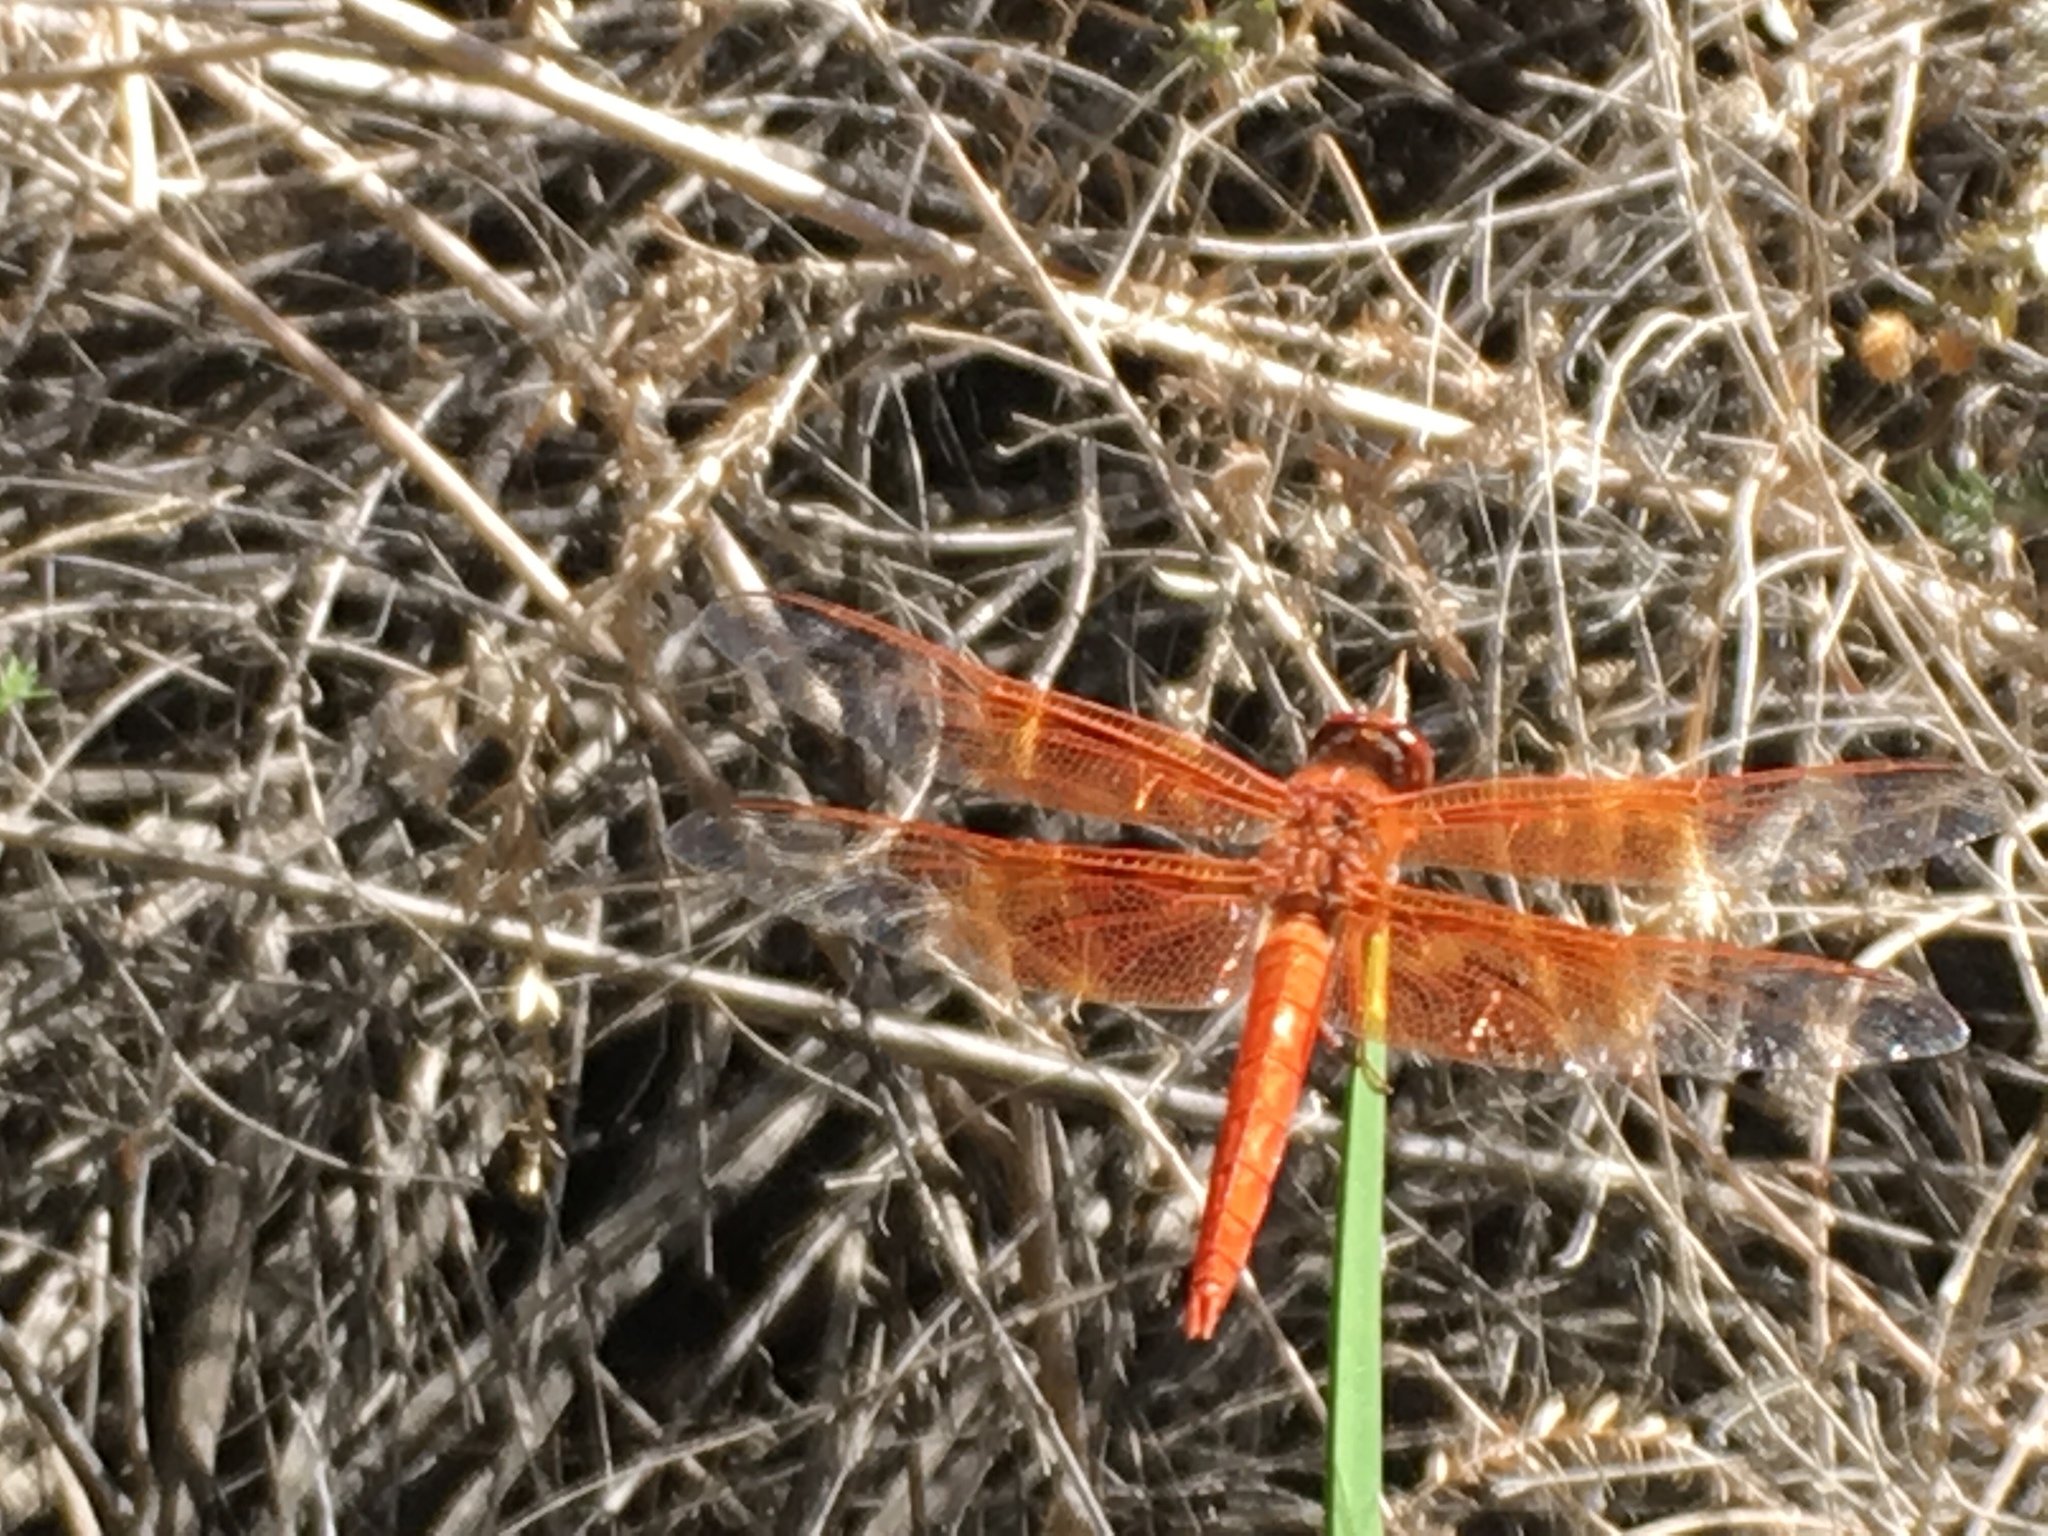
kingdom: Animalia
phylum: Arthropoda
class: Insecta
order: Odonata
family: Libellulidae
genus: Libellula
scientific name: Libellula saturata
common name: Flame skimmer
